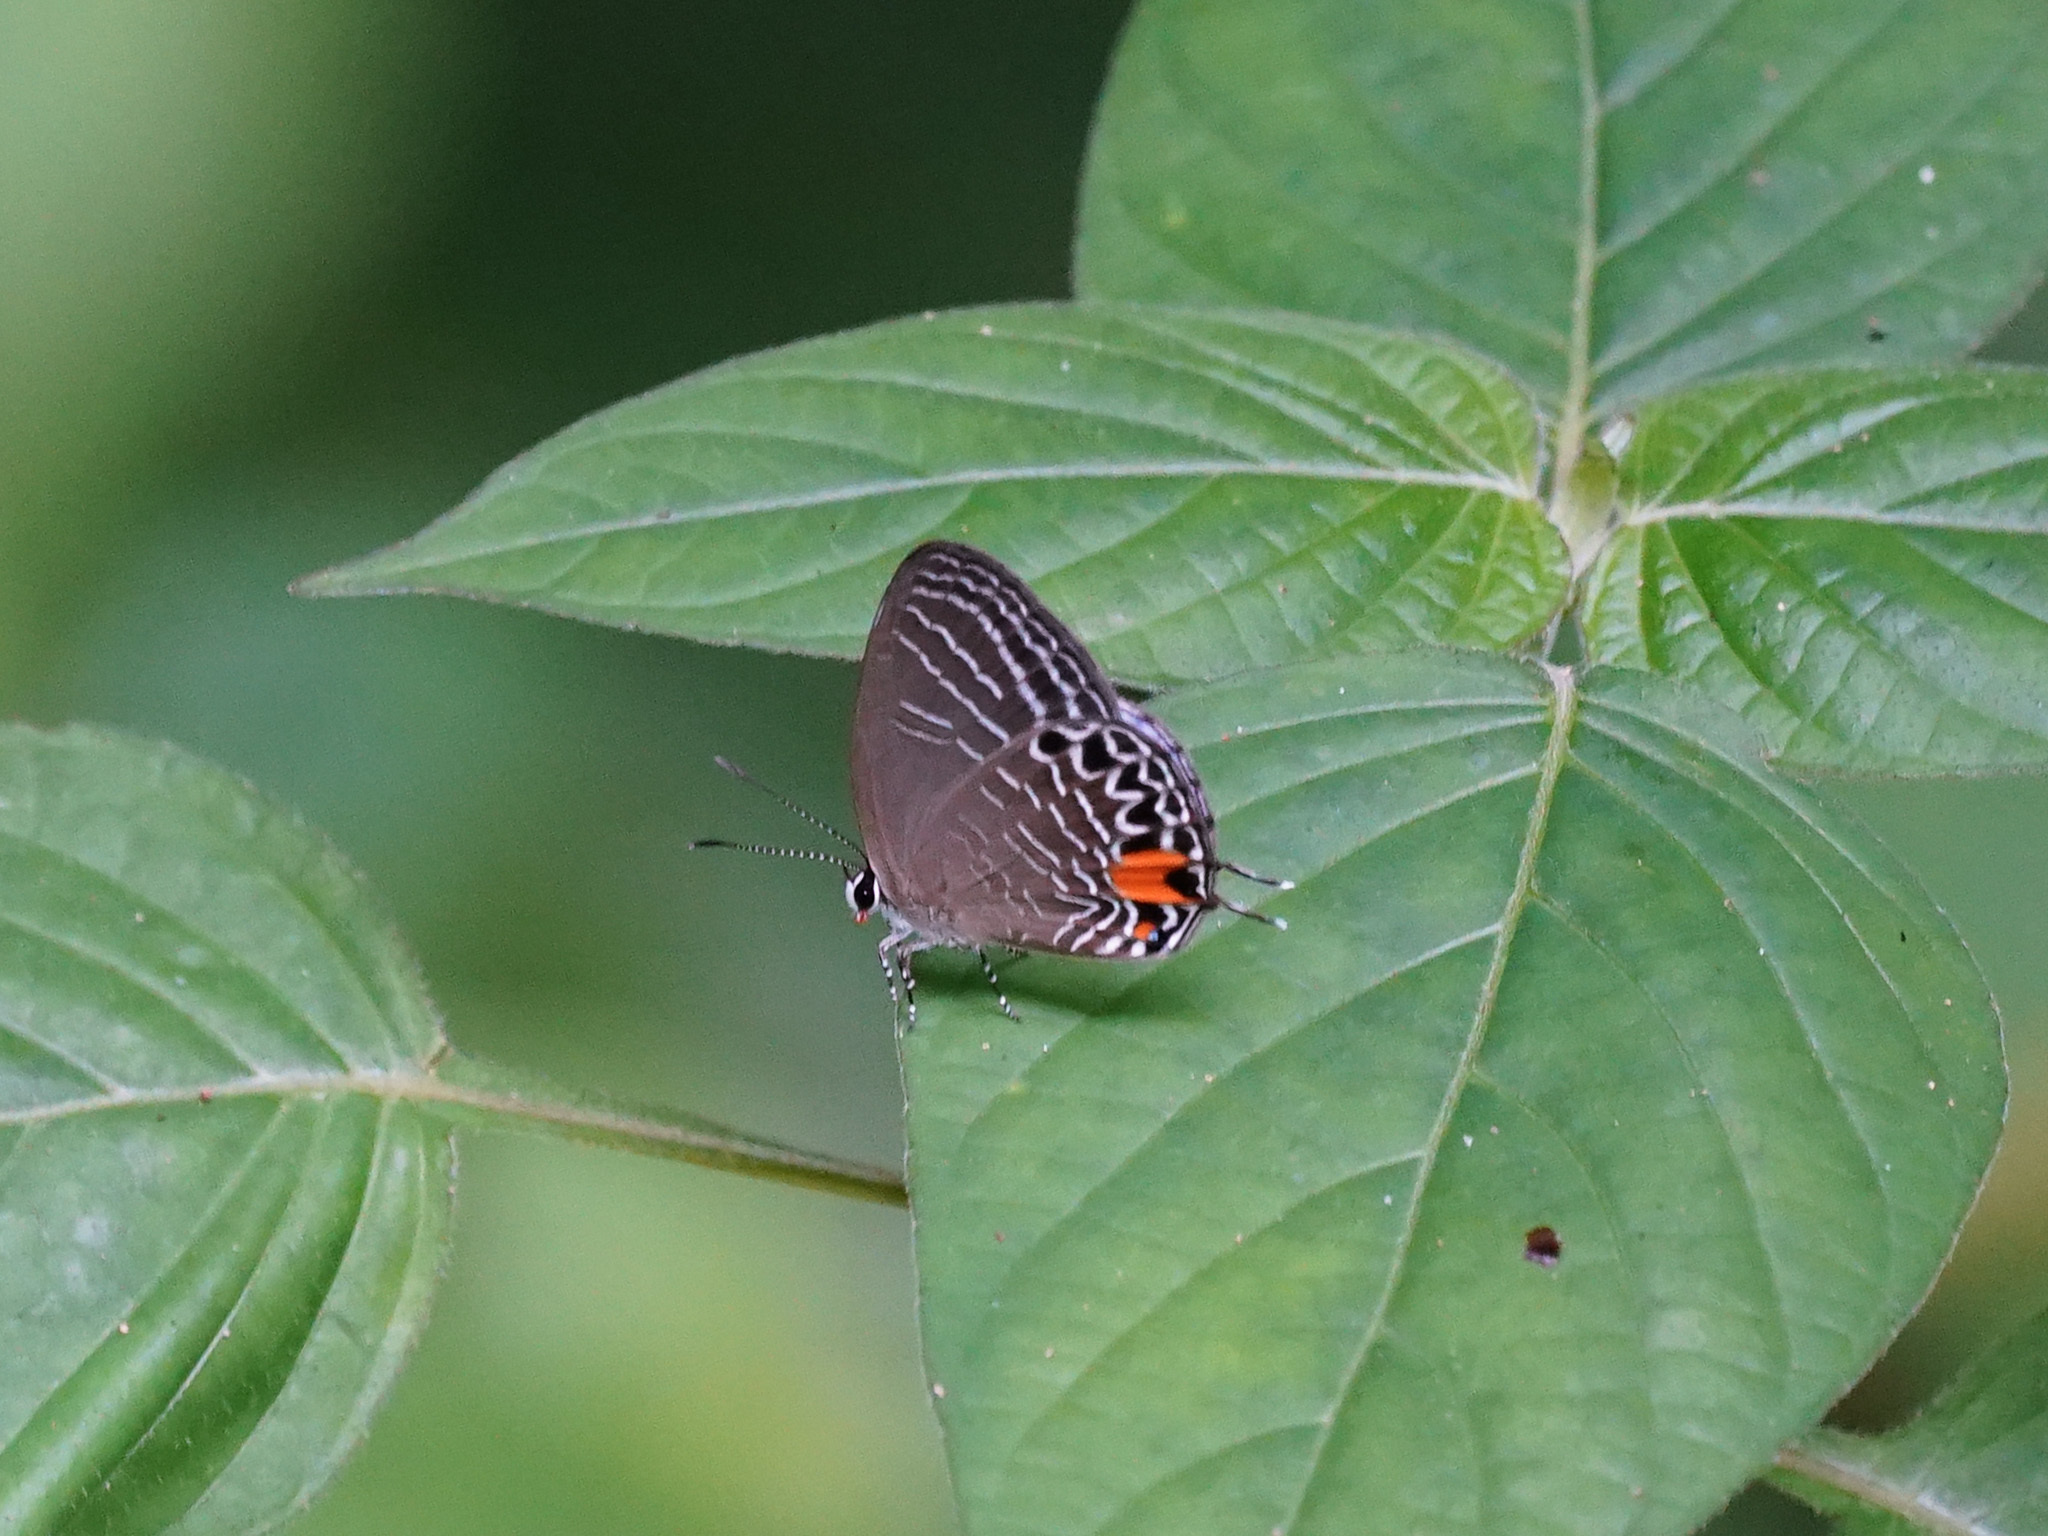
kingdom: Animalia
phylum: Arthropoda
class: Insecta
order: Lepidoptera
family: Lycaenidae
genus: Jamides
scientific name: Jamides
